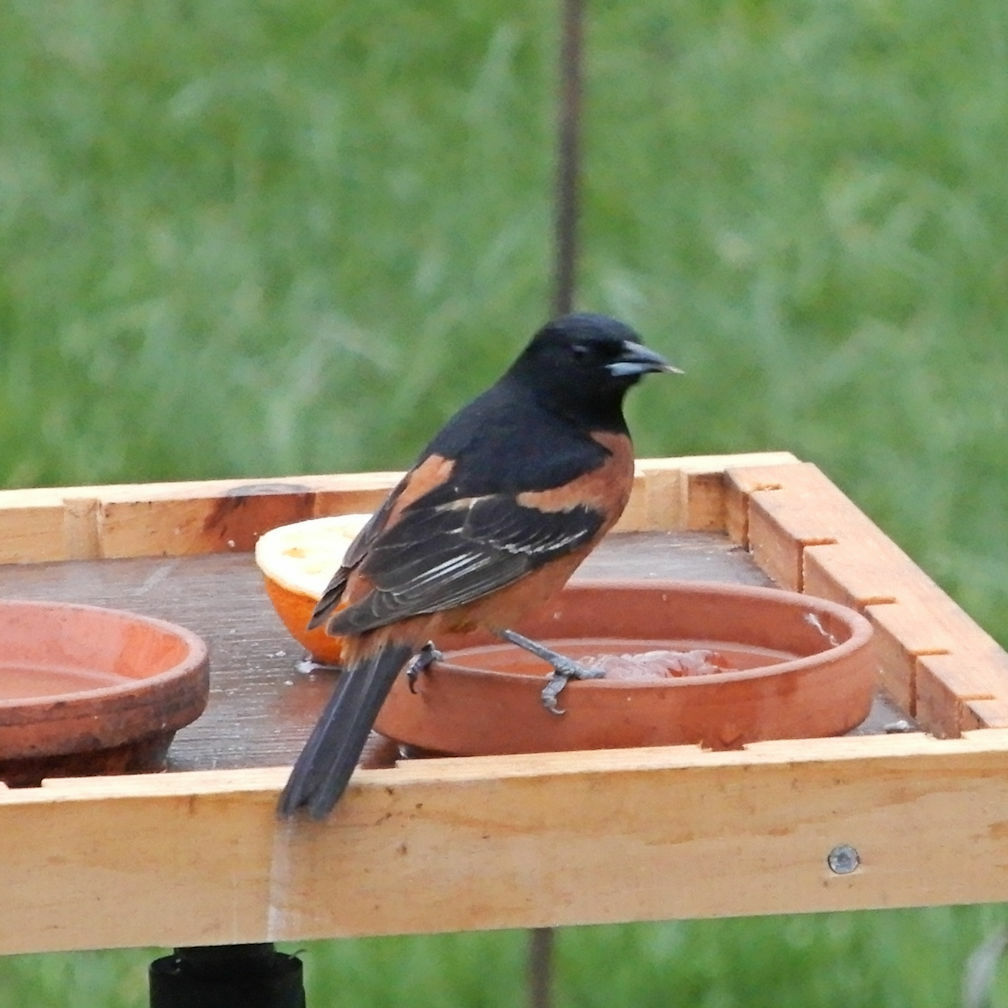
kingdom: Animalia
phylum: Chordata
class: Aves
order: Passeriformes
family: Icteridae
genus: Icterus
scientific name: Icterus spurius
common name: Orchard oriole
